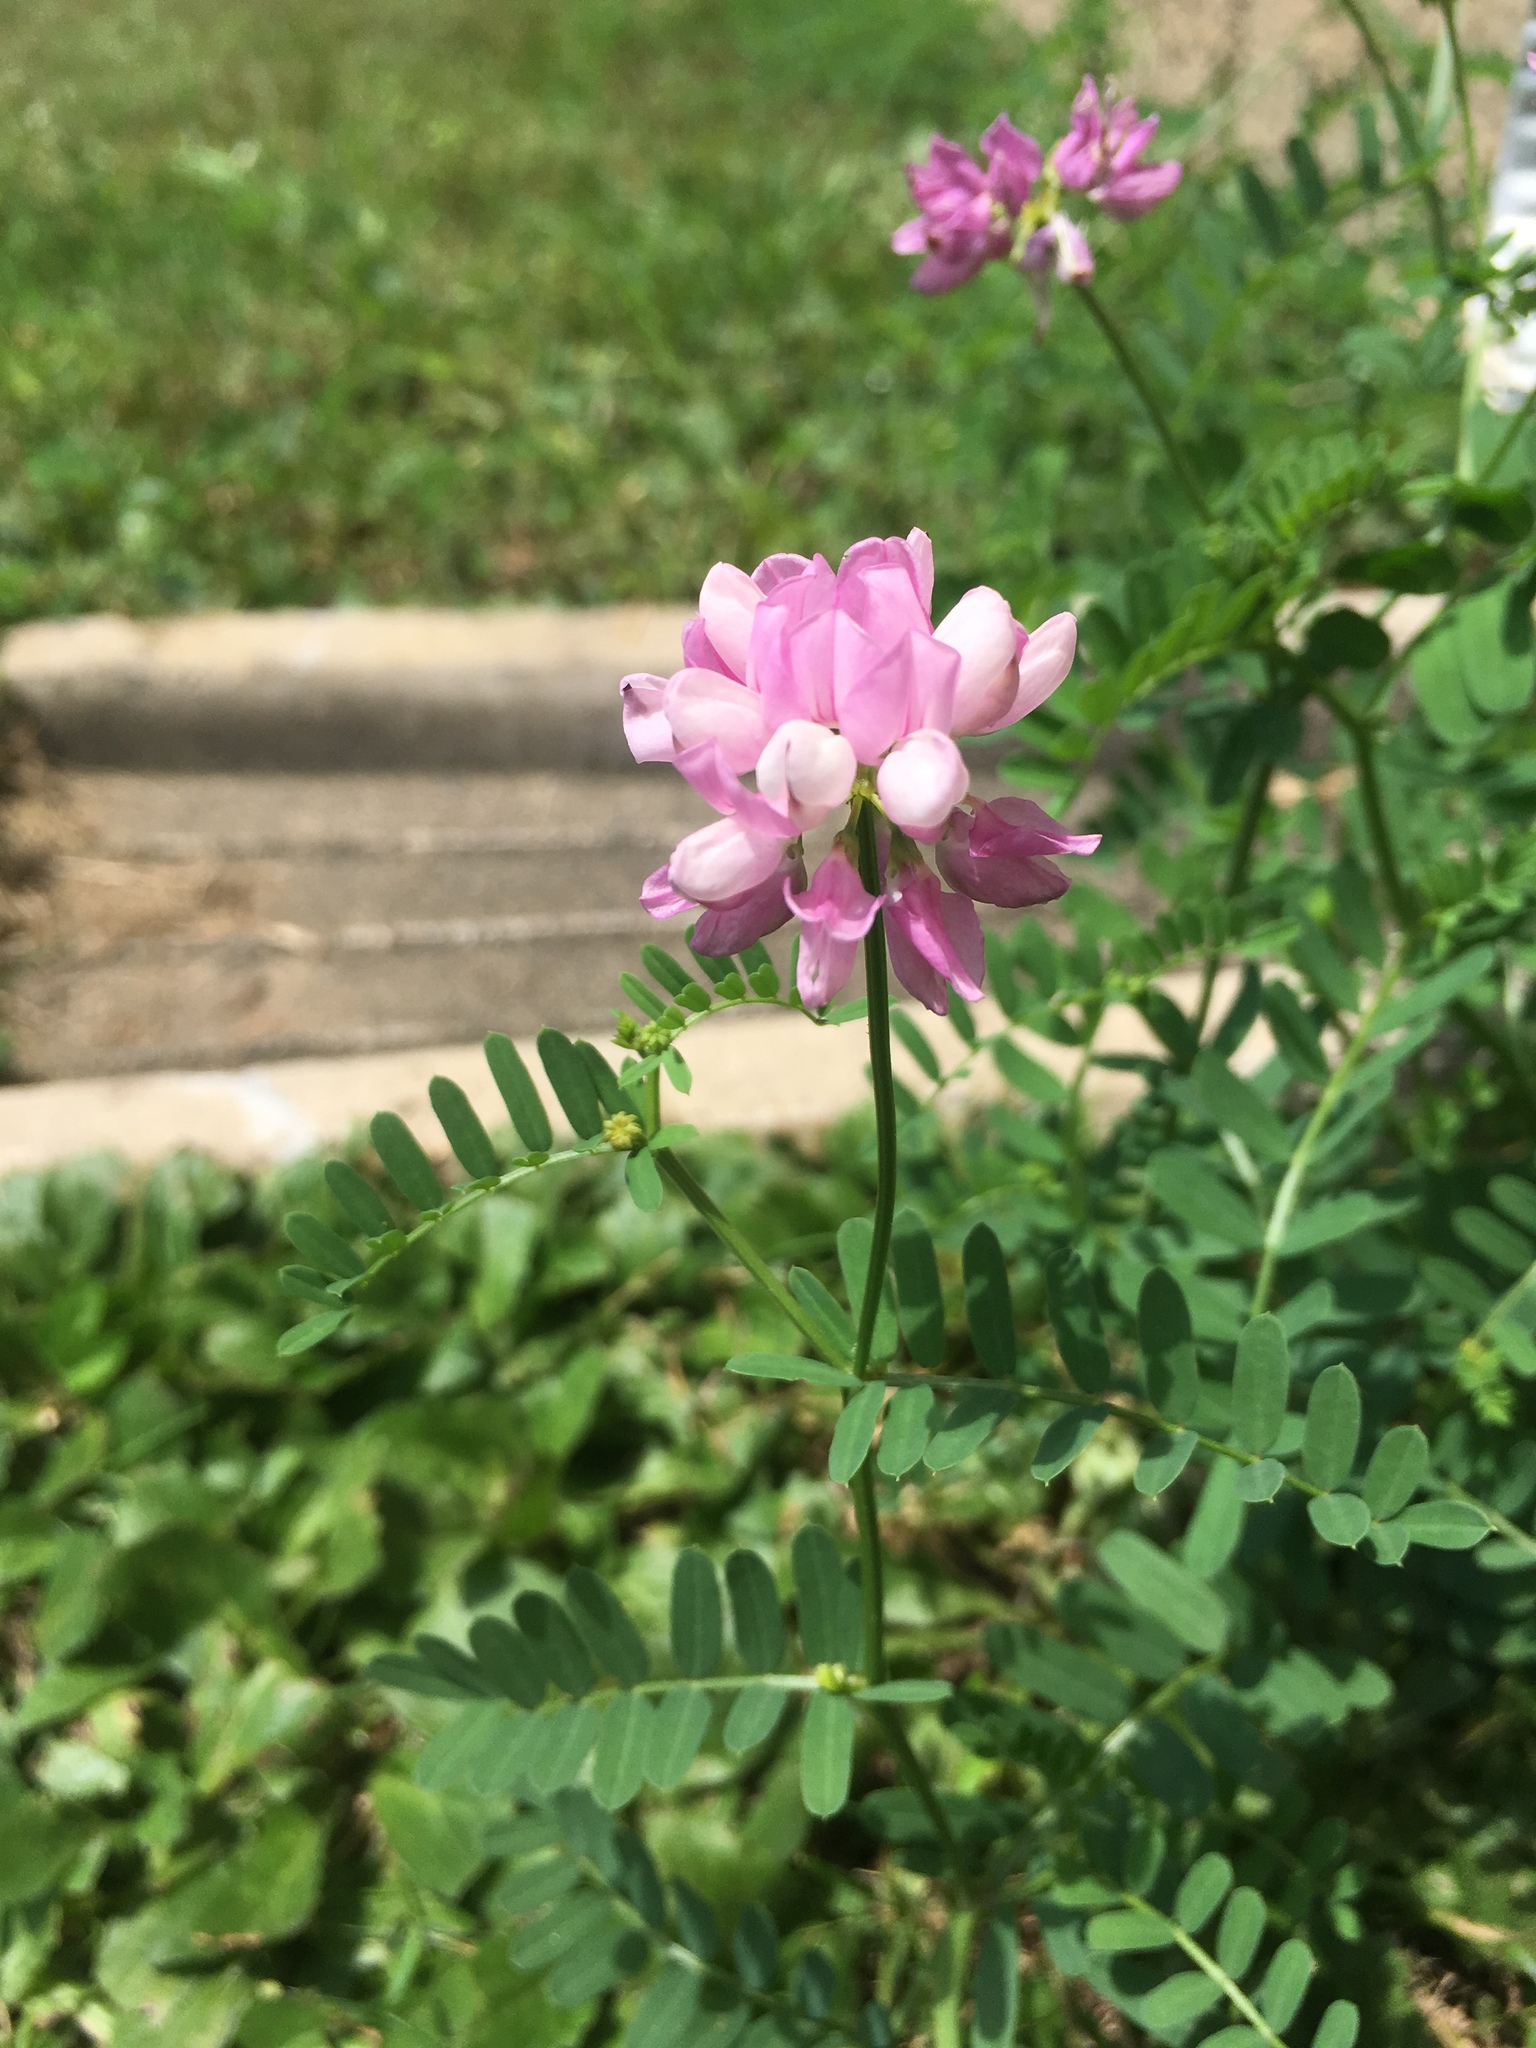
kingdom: Plantae
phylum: Tracheophyta
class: Magnoliopsida
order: Fabales
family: Fabaceae
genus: Coronilla
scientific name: Coronilla varia
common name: Crownvetch
